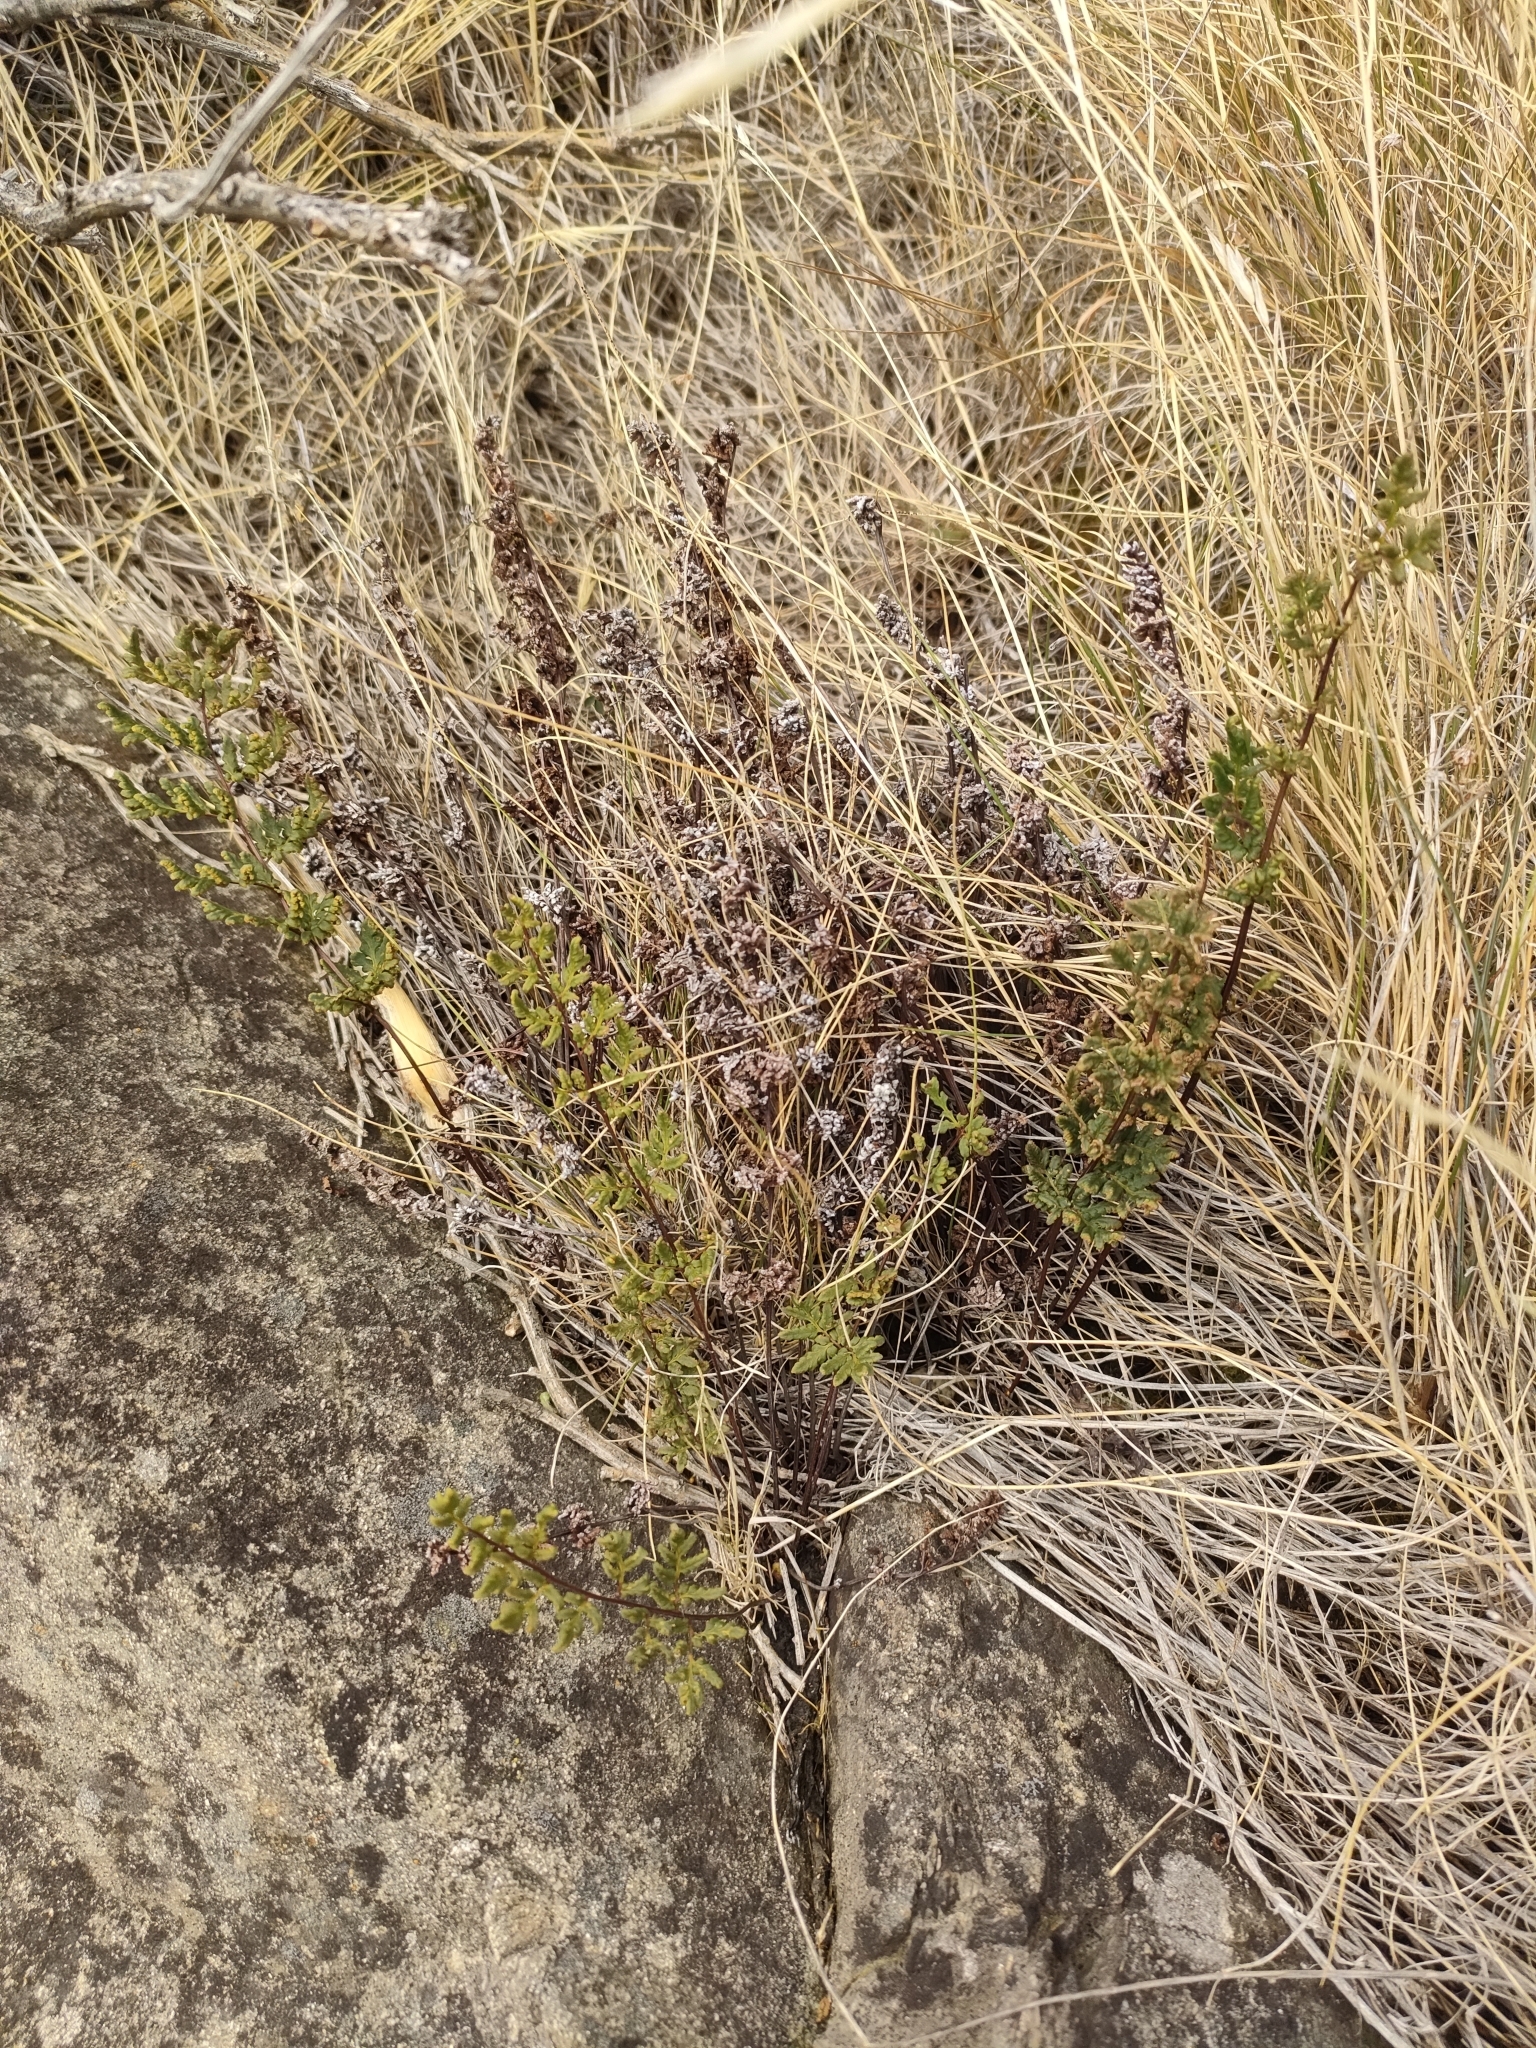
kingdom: Plantae
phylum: Tracheophyta
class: Polypodiopsida
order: Polypodiales
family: Pteridaceae
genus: Cheilanthes
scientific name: Cheilanthes sieberi
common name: Mulga fern
